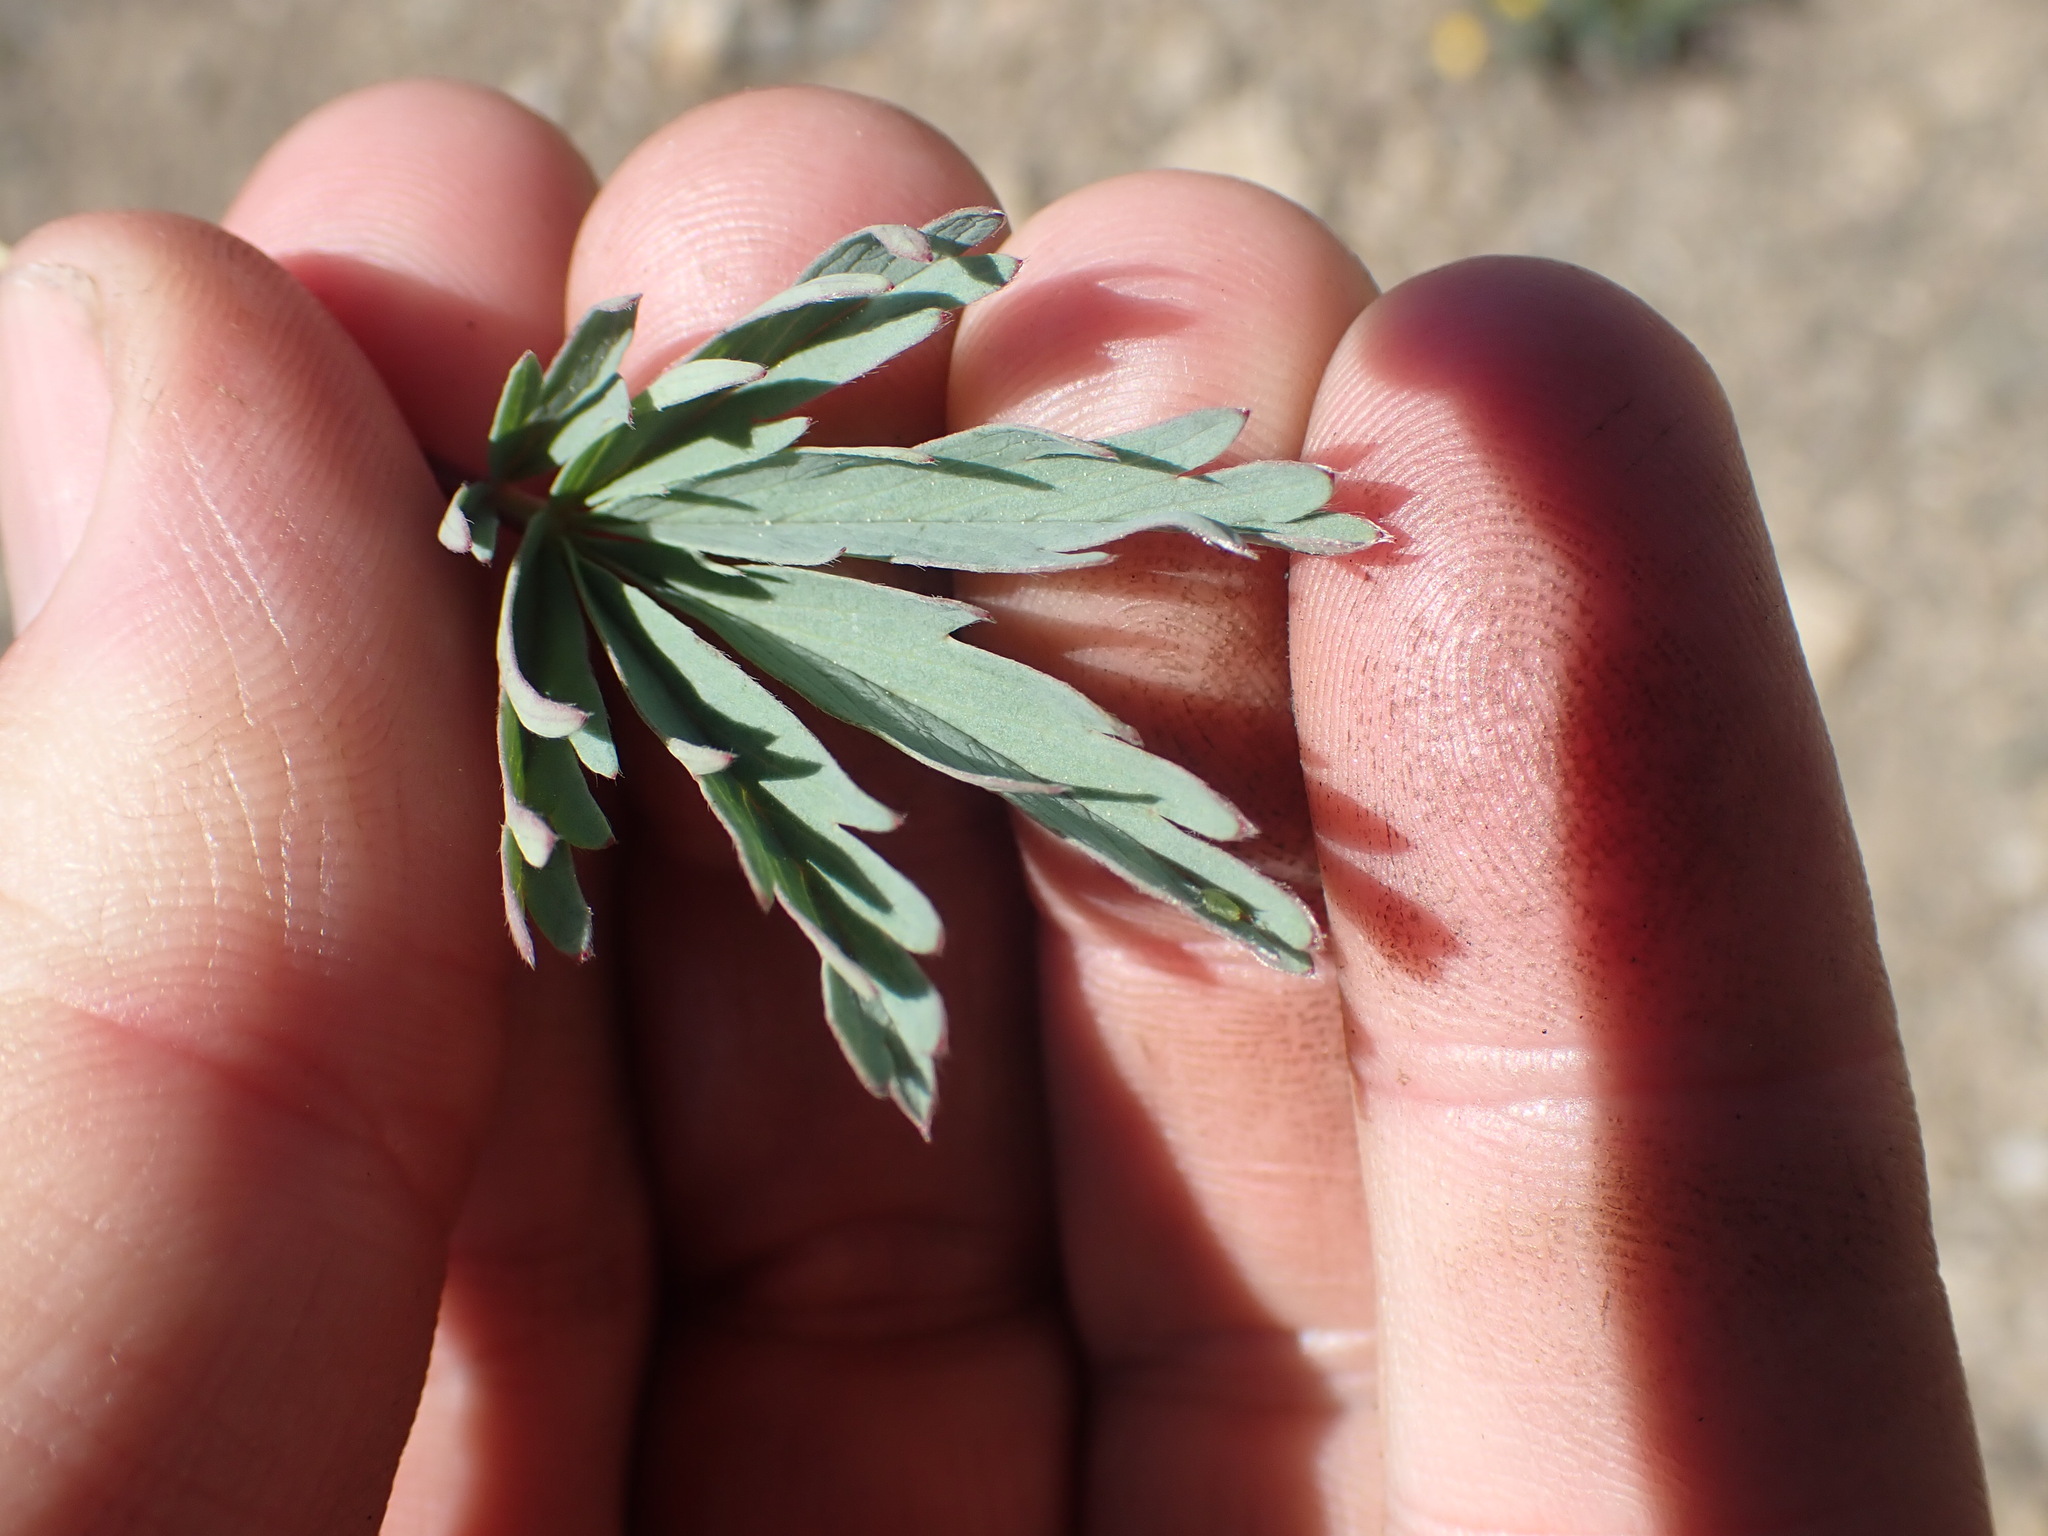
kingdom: Plantae
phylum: Tracheophyta
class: Magnoliopsida
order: Rosales
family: Rosaceae
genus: Potentilla
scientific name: Potentilla glaucophylla
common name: Blue-leaved cinquefoil
